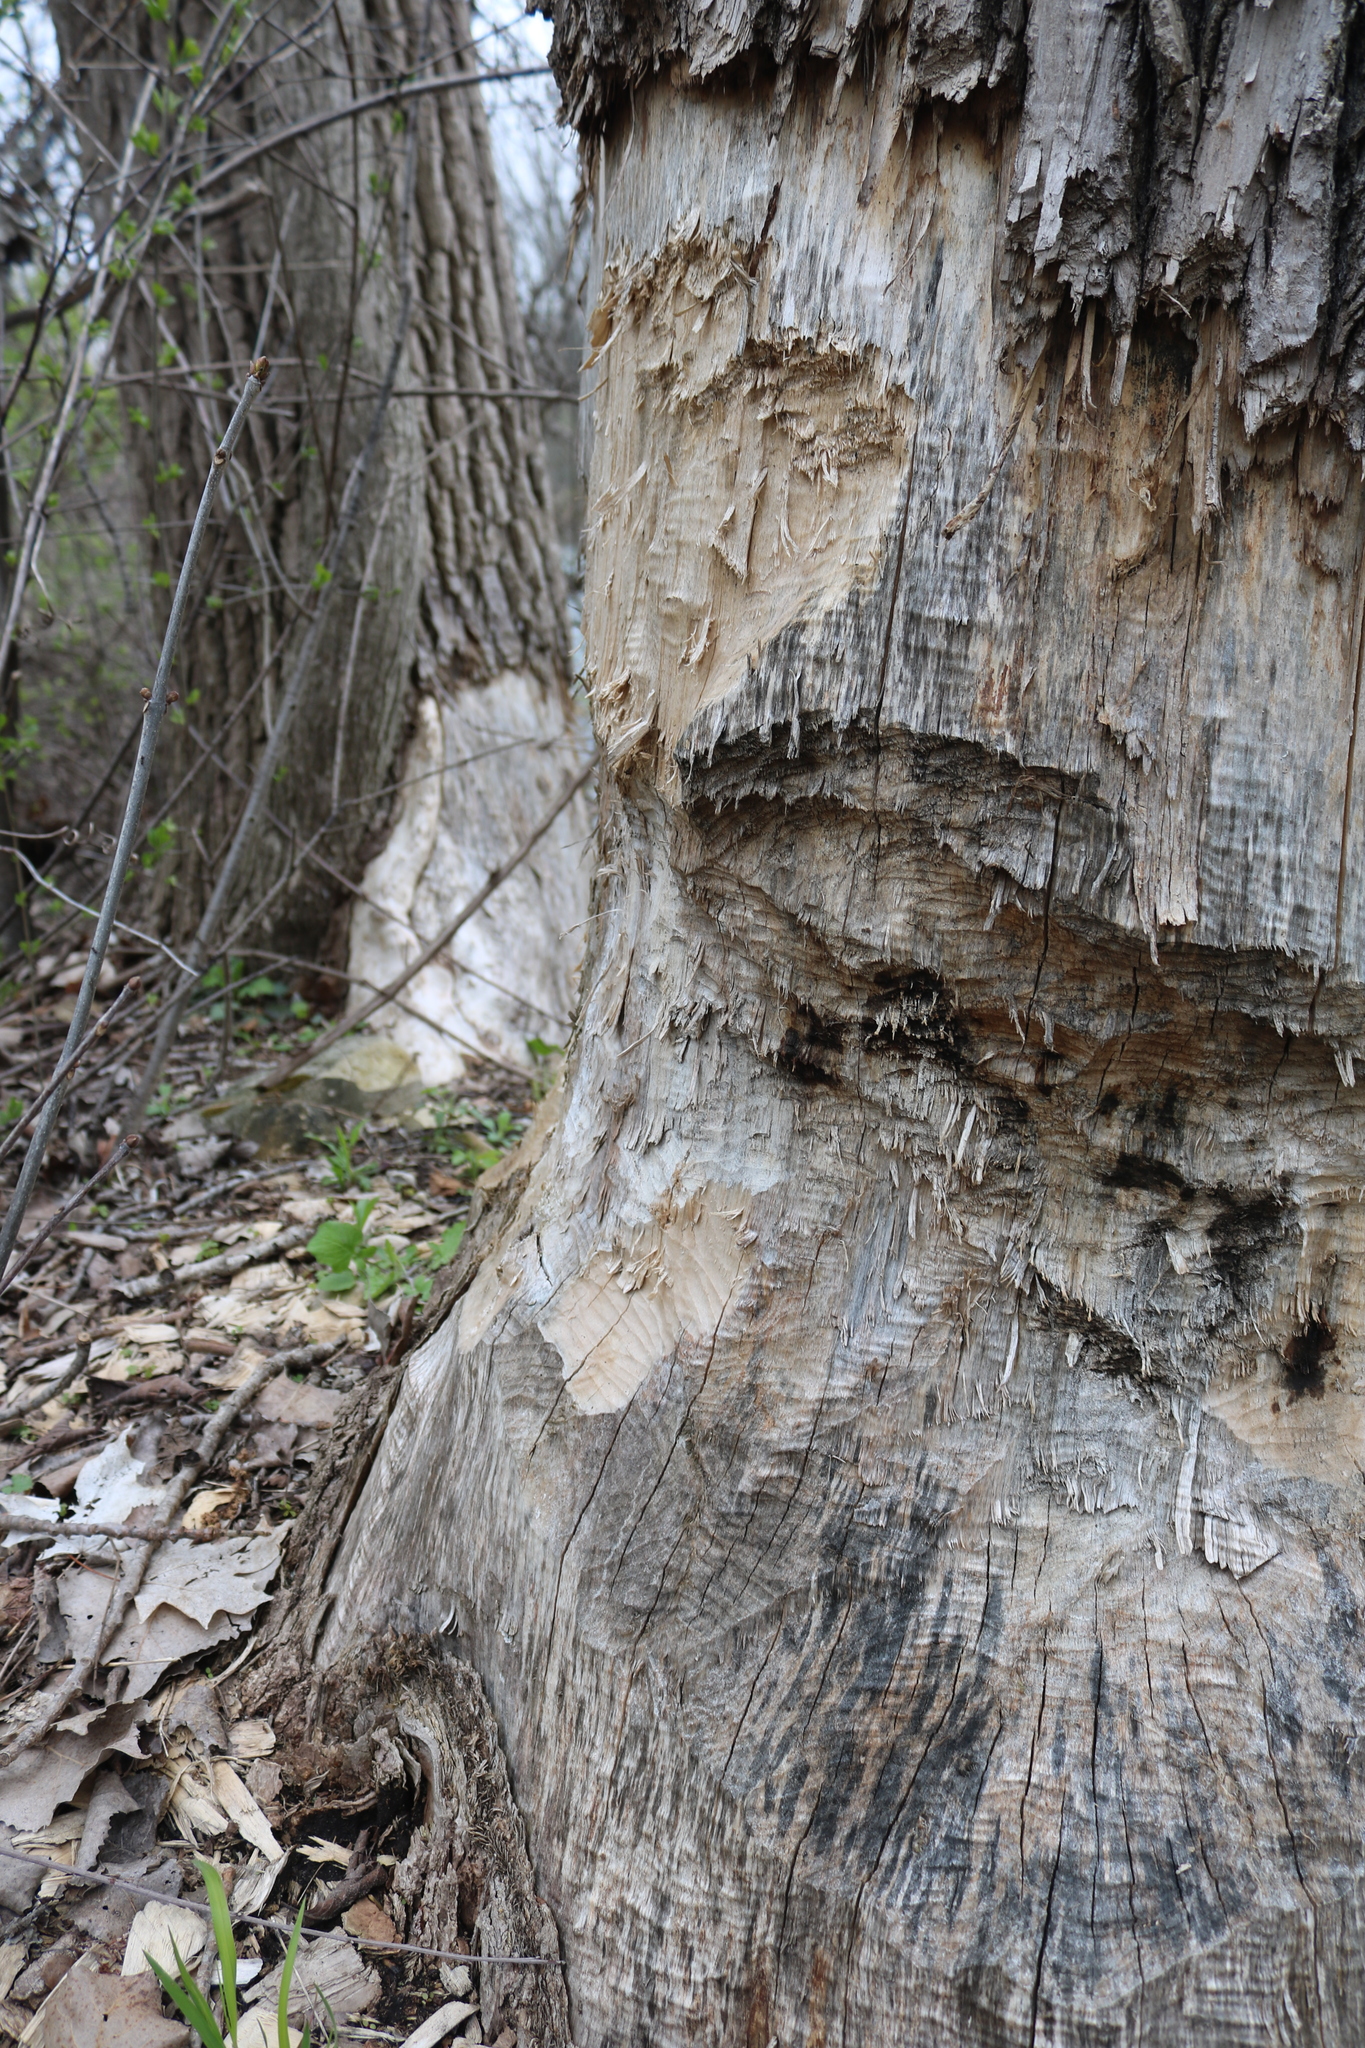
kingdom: Animalia
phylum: Chordata
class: Mammalia
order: Rodentia
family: Castoridae
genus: Castor
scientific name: Castor canadensis
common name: American beaver
